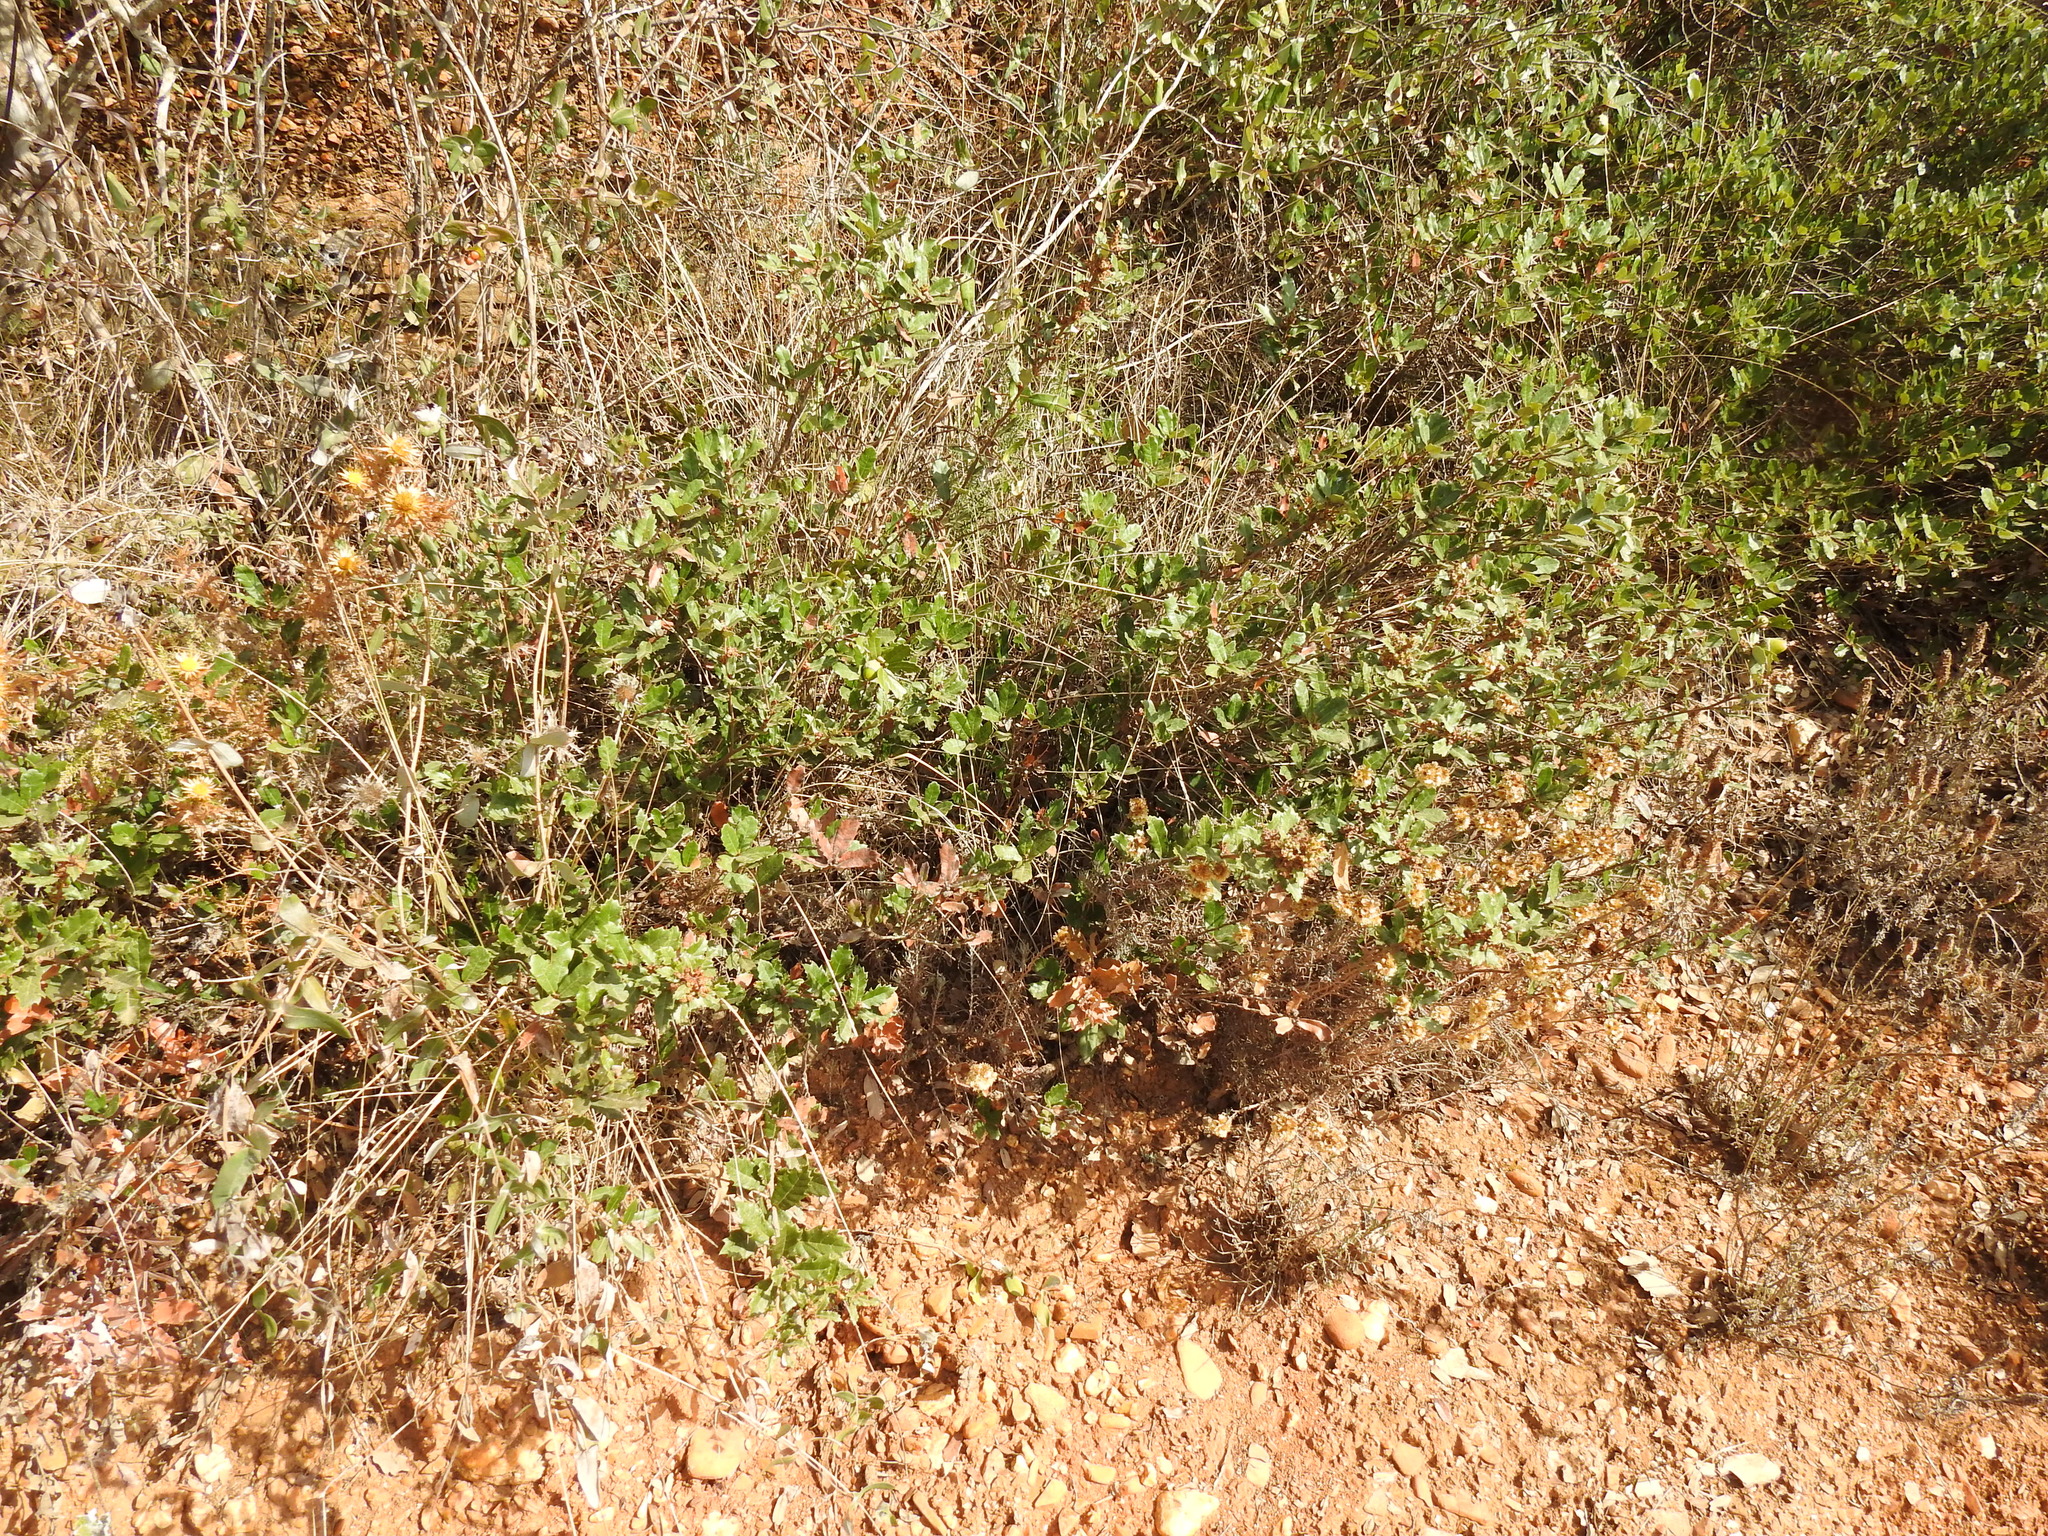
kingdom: Plantae
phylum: Tracheophyta
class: Magnoliopsida
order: Fagales
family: Fagaceae
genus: Quercus
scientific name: Quercus lusitanica
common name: Scrub gall oak
